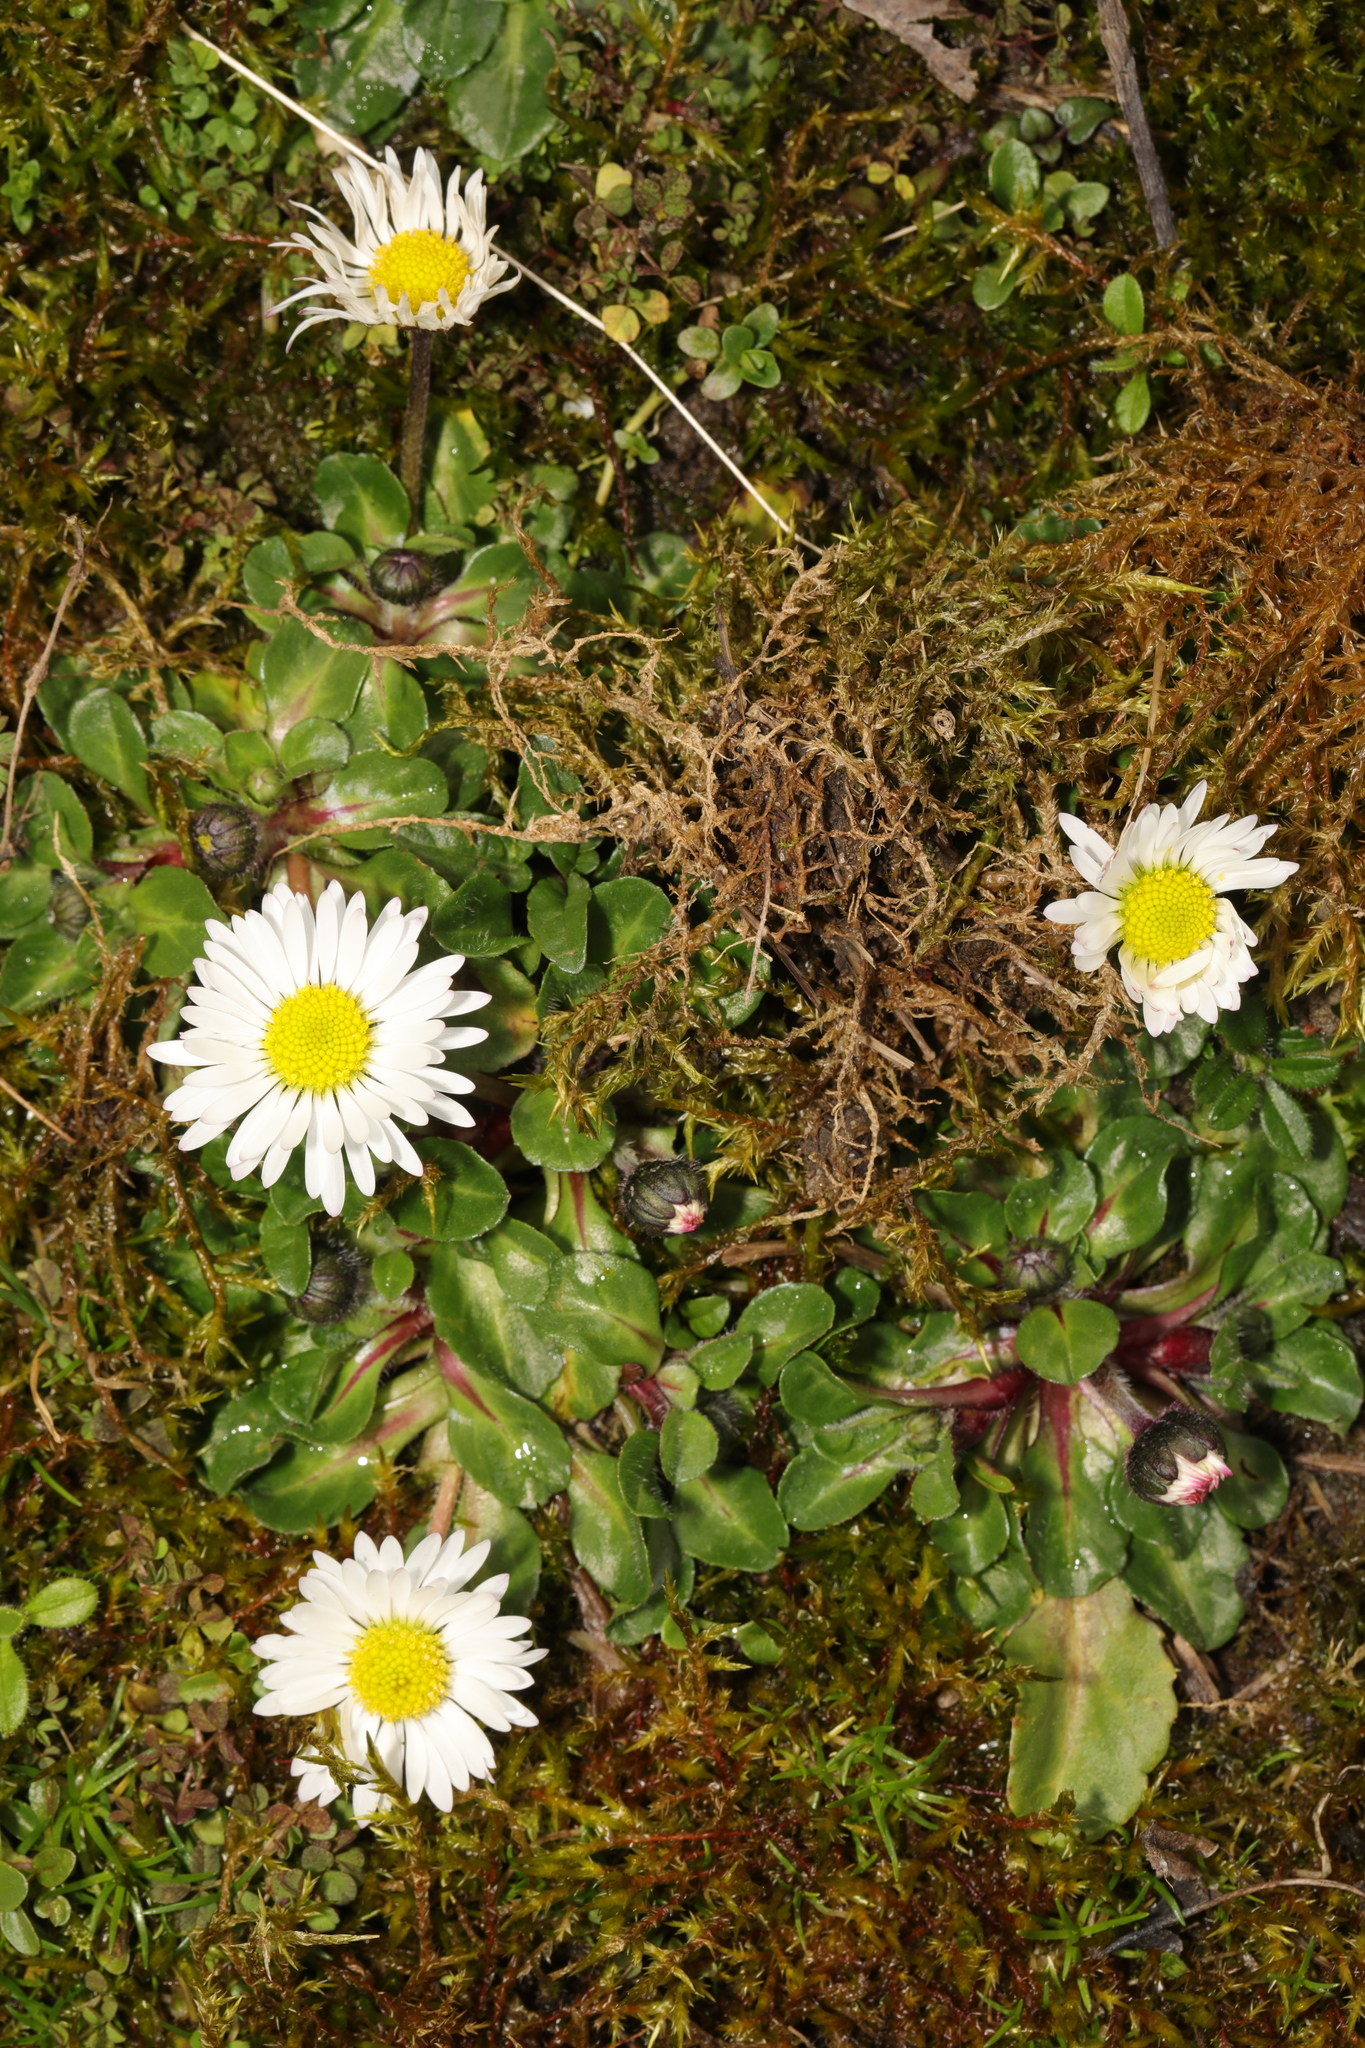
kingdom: Plantae
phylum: Tracheophyta
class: Magnoliopsida
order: Asterales
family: Asteraceae
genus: Bellis
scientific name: Bellis perennis
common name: Lawndaisy
